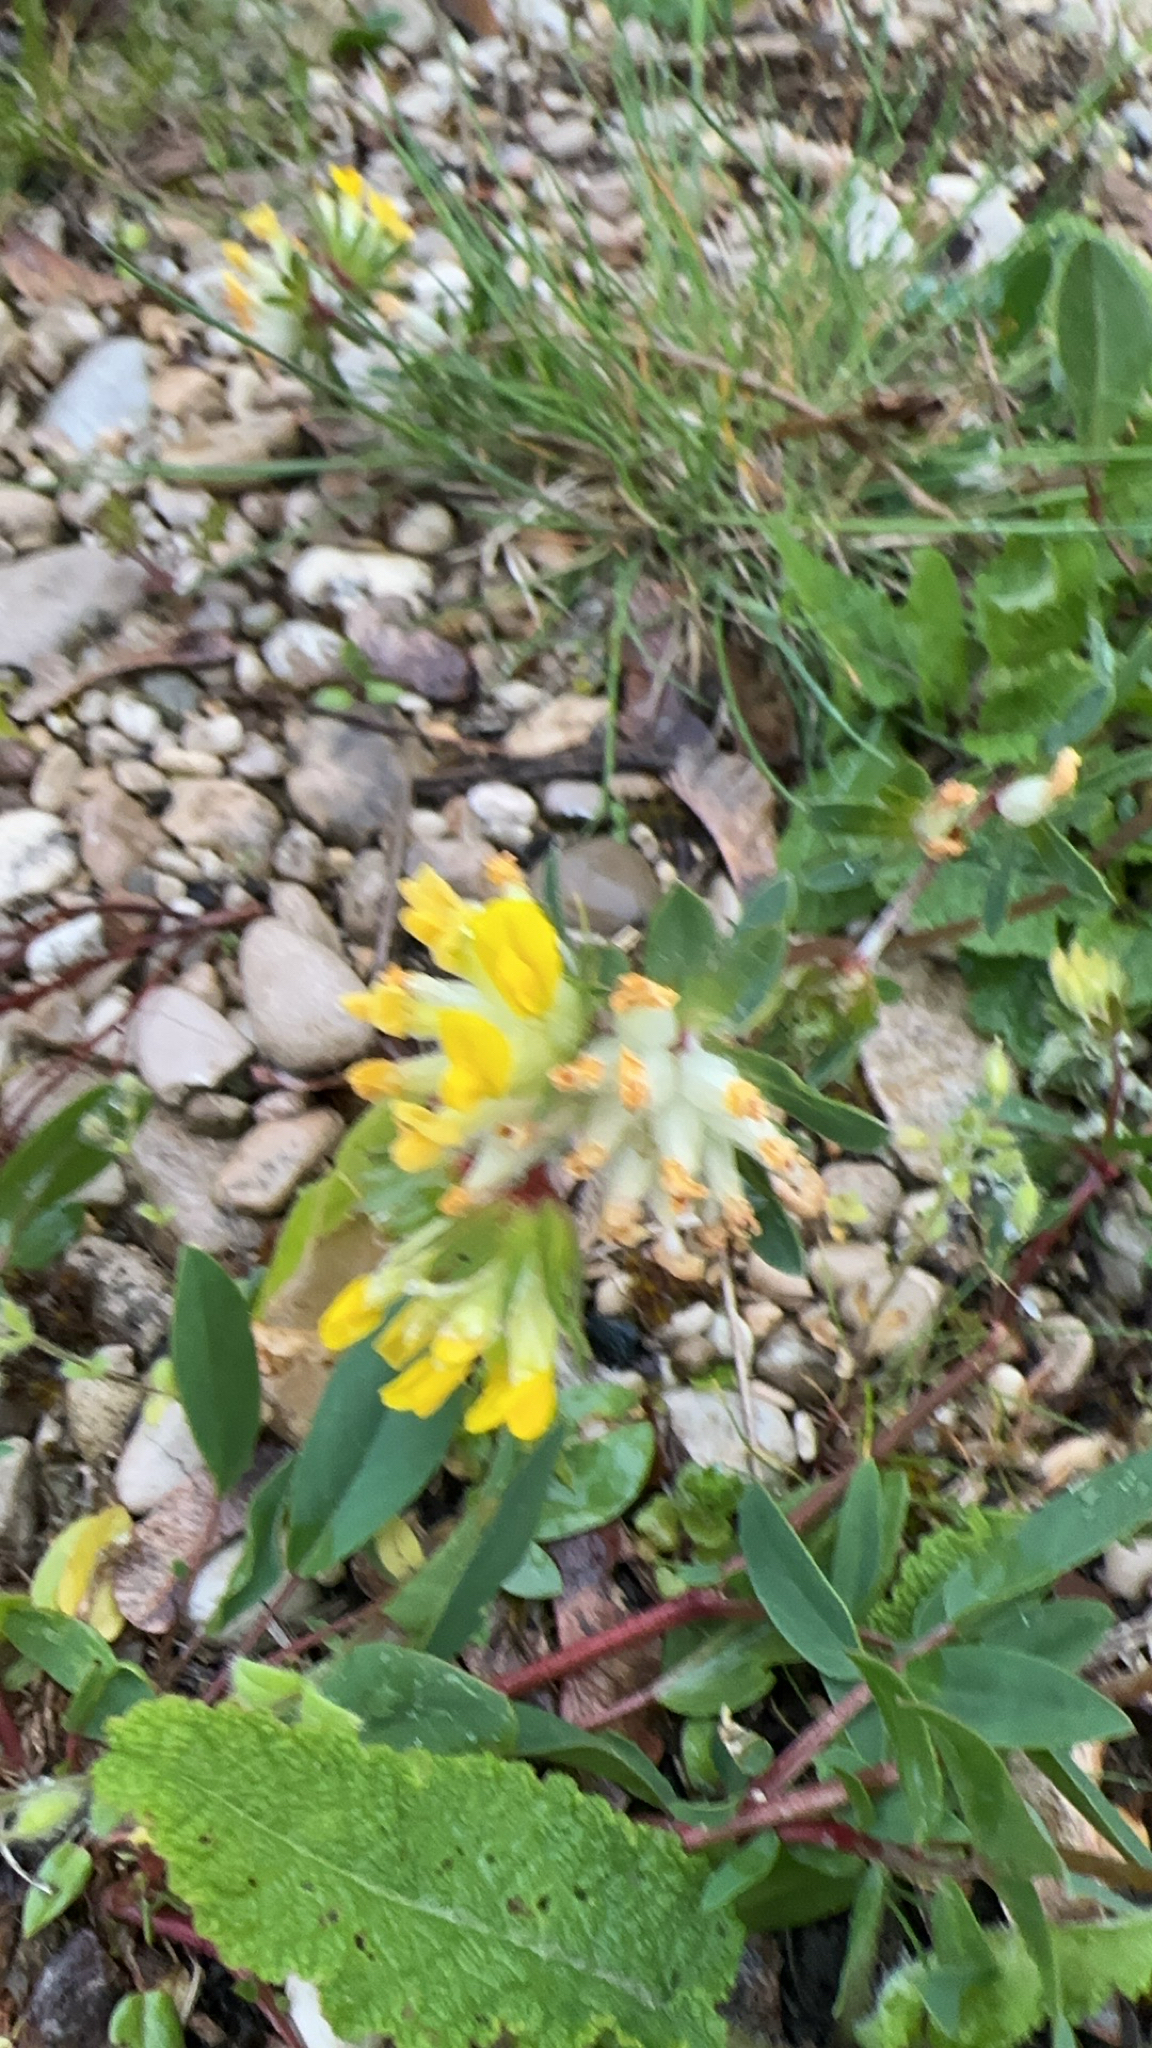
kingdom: Plantae
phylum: Tracheophyta
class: Magnoliopsida
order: Fabales
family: Fabaceae
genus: Anthyllis
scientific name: Anthyllis vulneraria
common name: Kidney vetch
